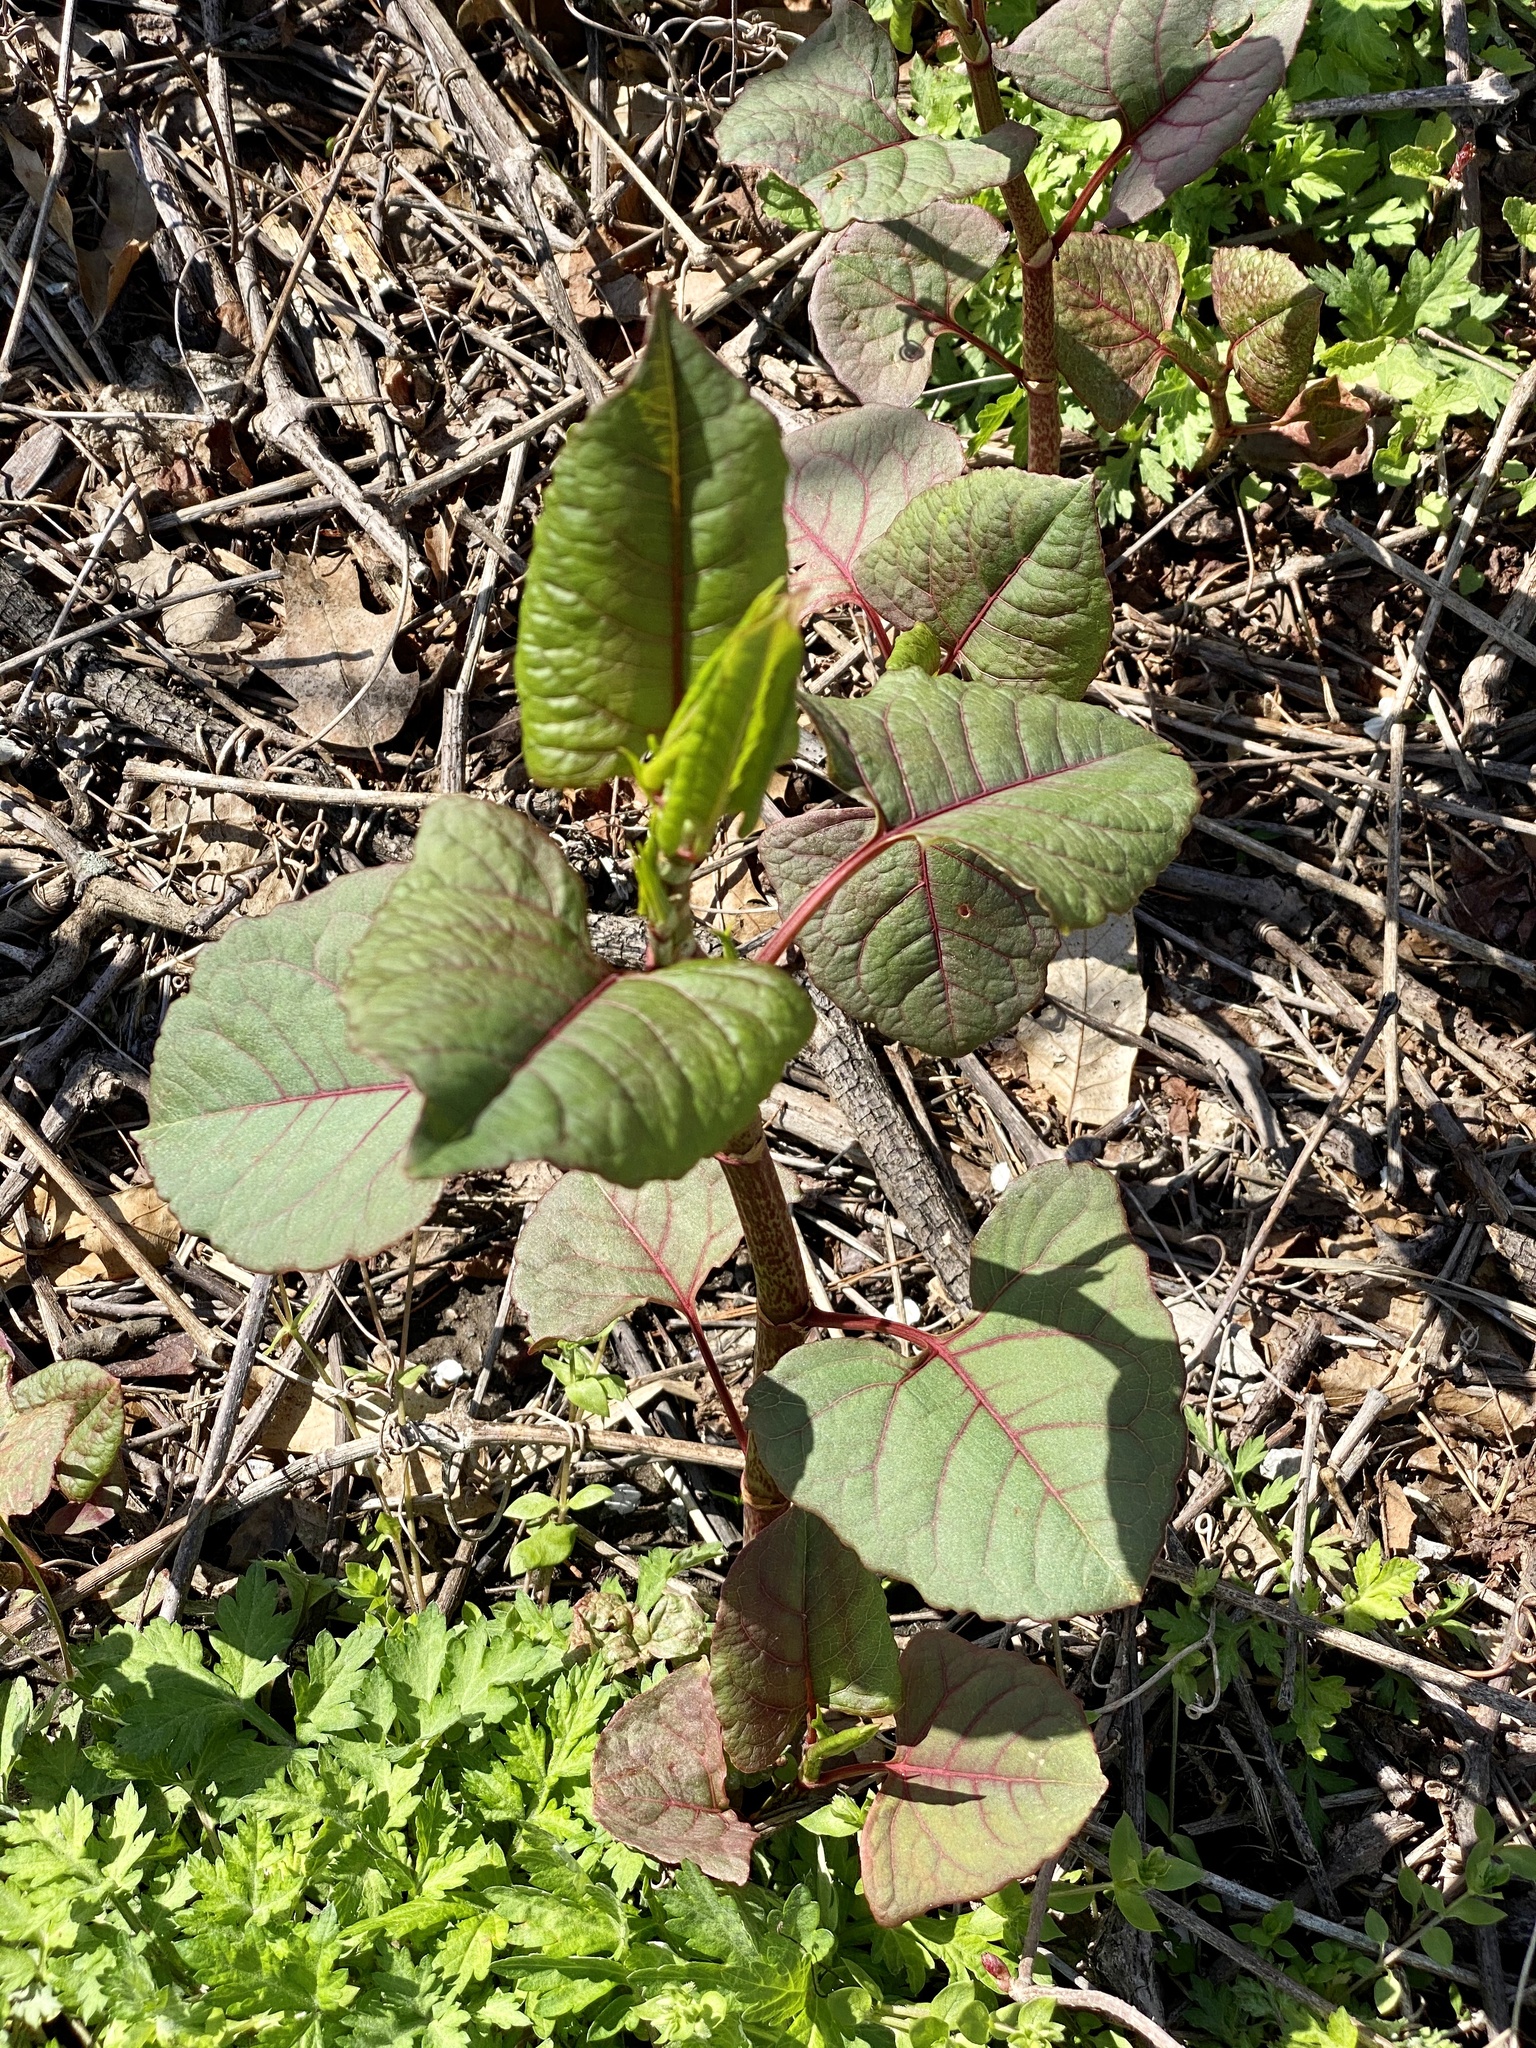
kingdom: Plantae
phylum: Tracheophyta
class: Magnoliopsida
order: Caryophyllales
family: Polygonaceae
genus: Reynoutria
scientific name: Reynoutria japonica
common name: Japanese knotweed
